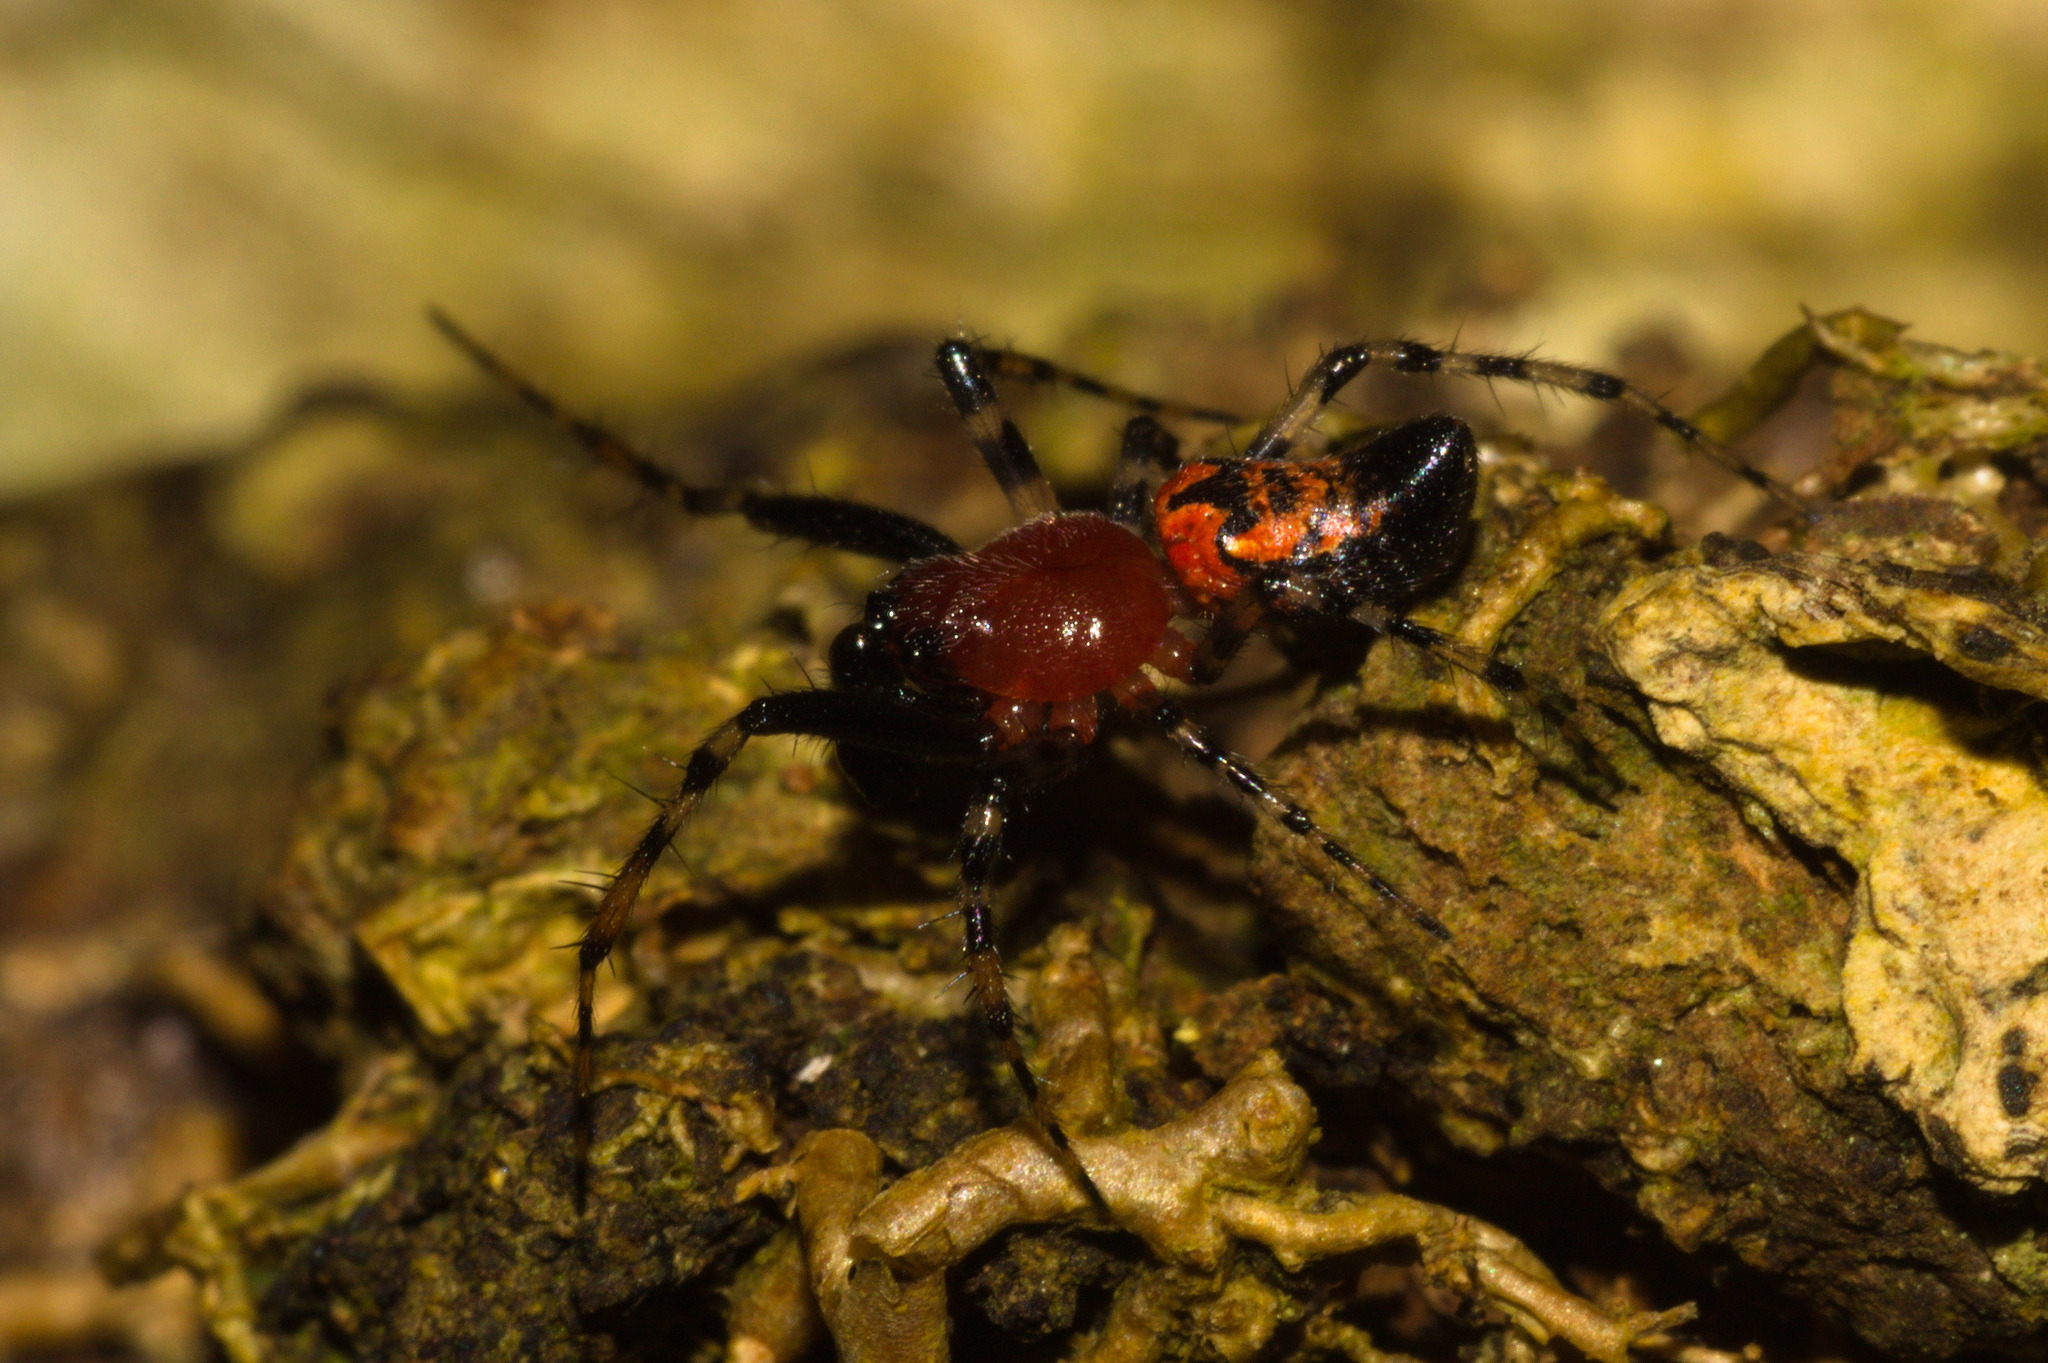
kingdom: Animalia
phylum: Arthropoda
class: Arachnida
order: Araneae
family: Araneidae
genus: Alpaida
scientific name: Alpaida gallardoi
